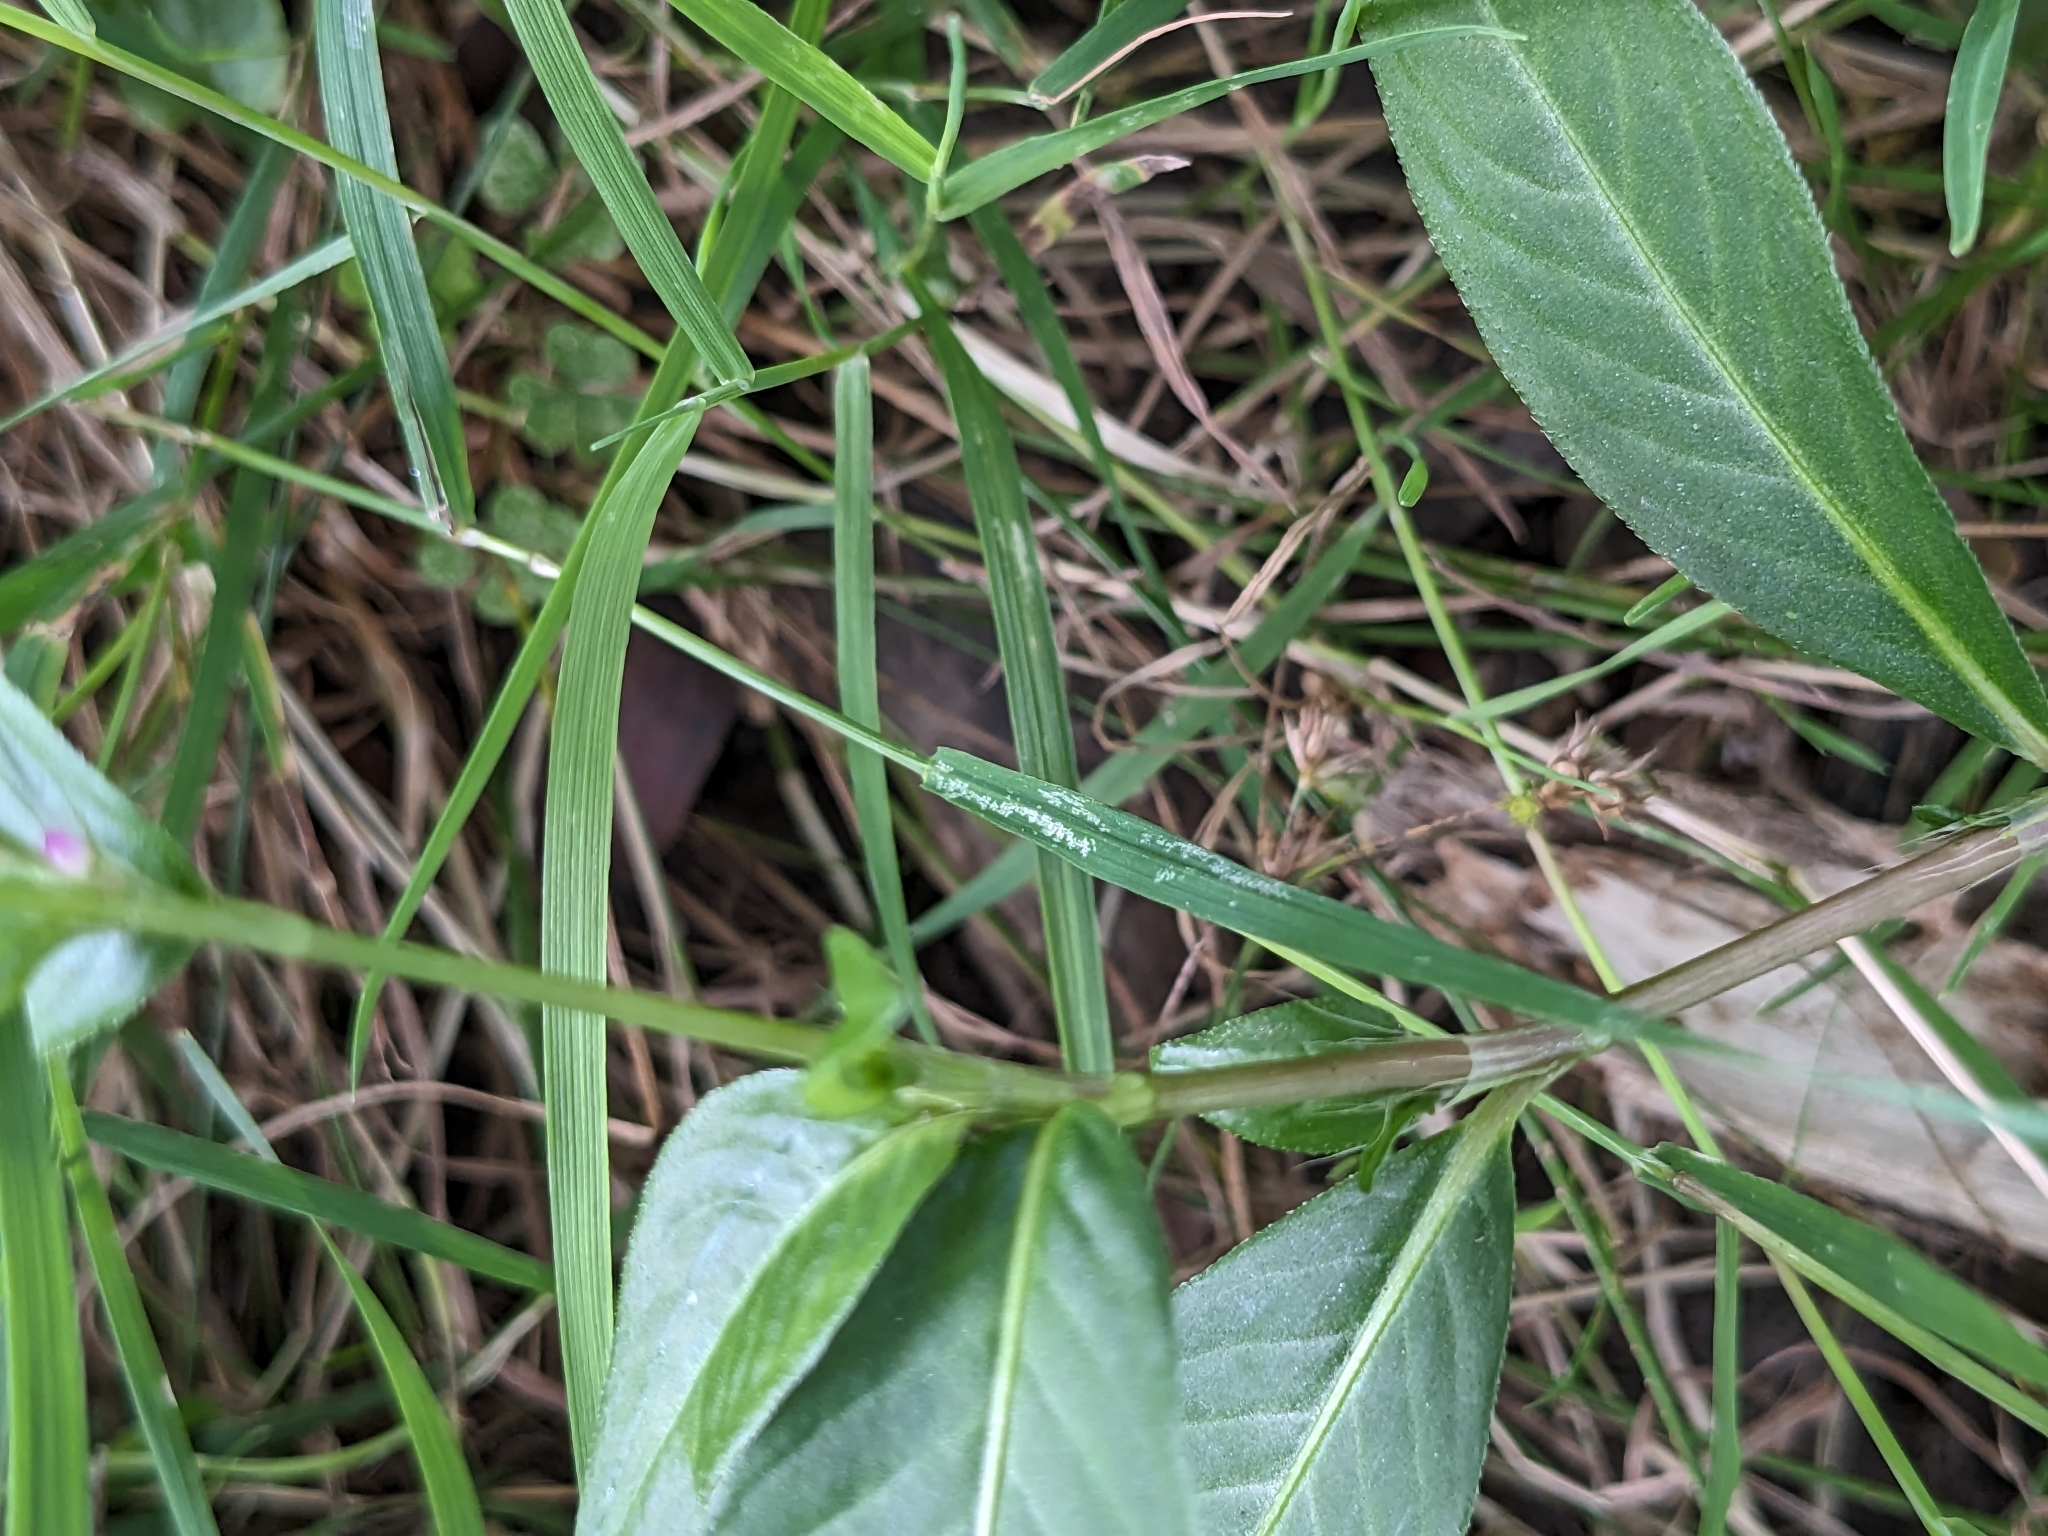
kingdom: Plantae
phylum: Tracheophyta
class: Magnoliopsida
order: Caryophyllales
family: Polygonaceae
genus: Persicaria
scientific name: Persicaria longiseta
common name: Bristly lady's-thumb
